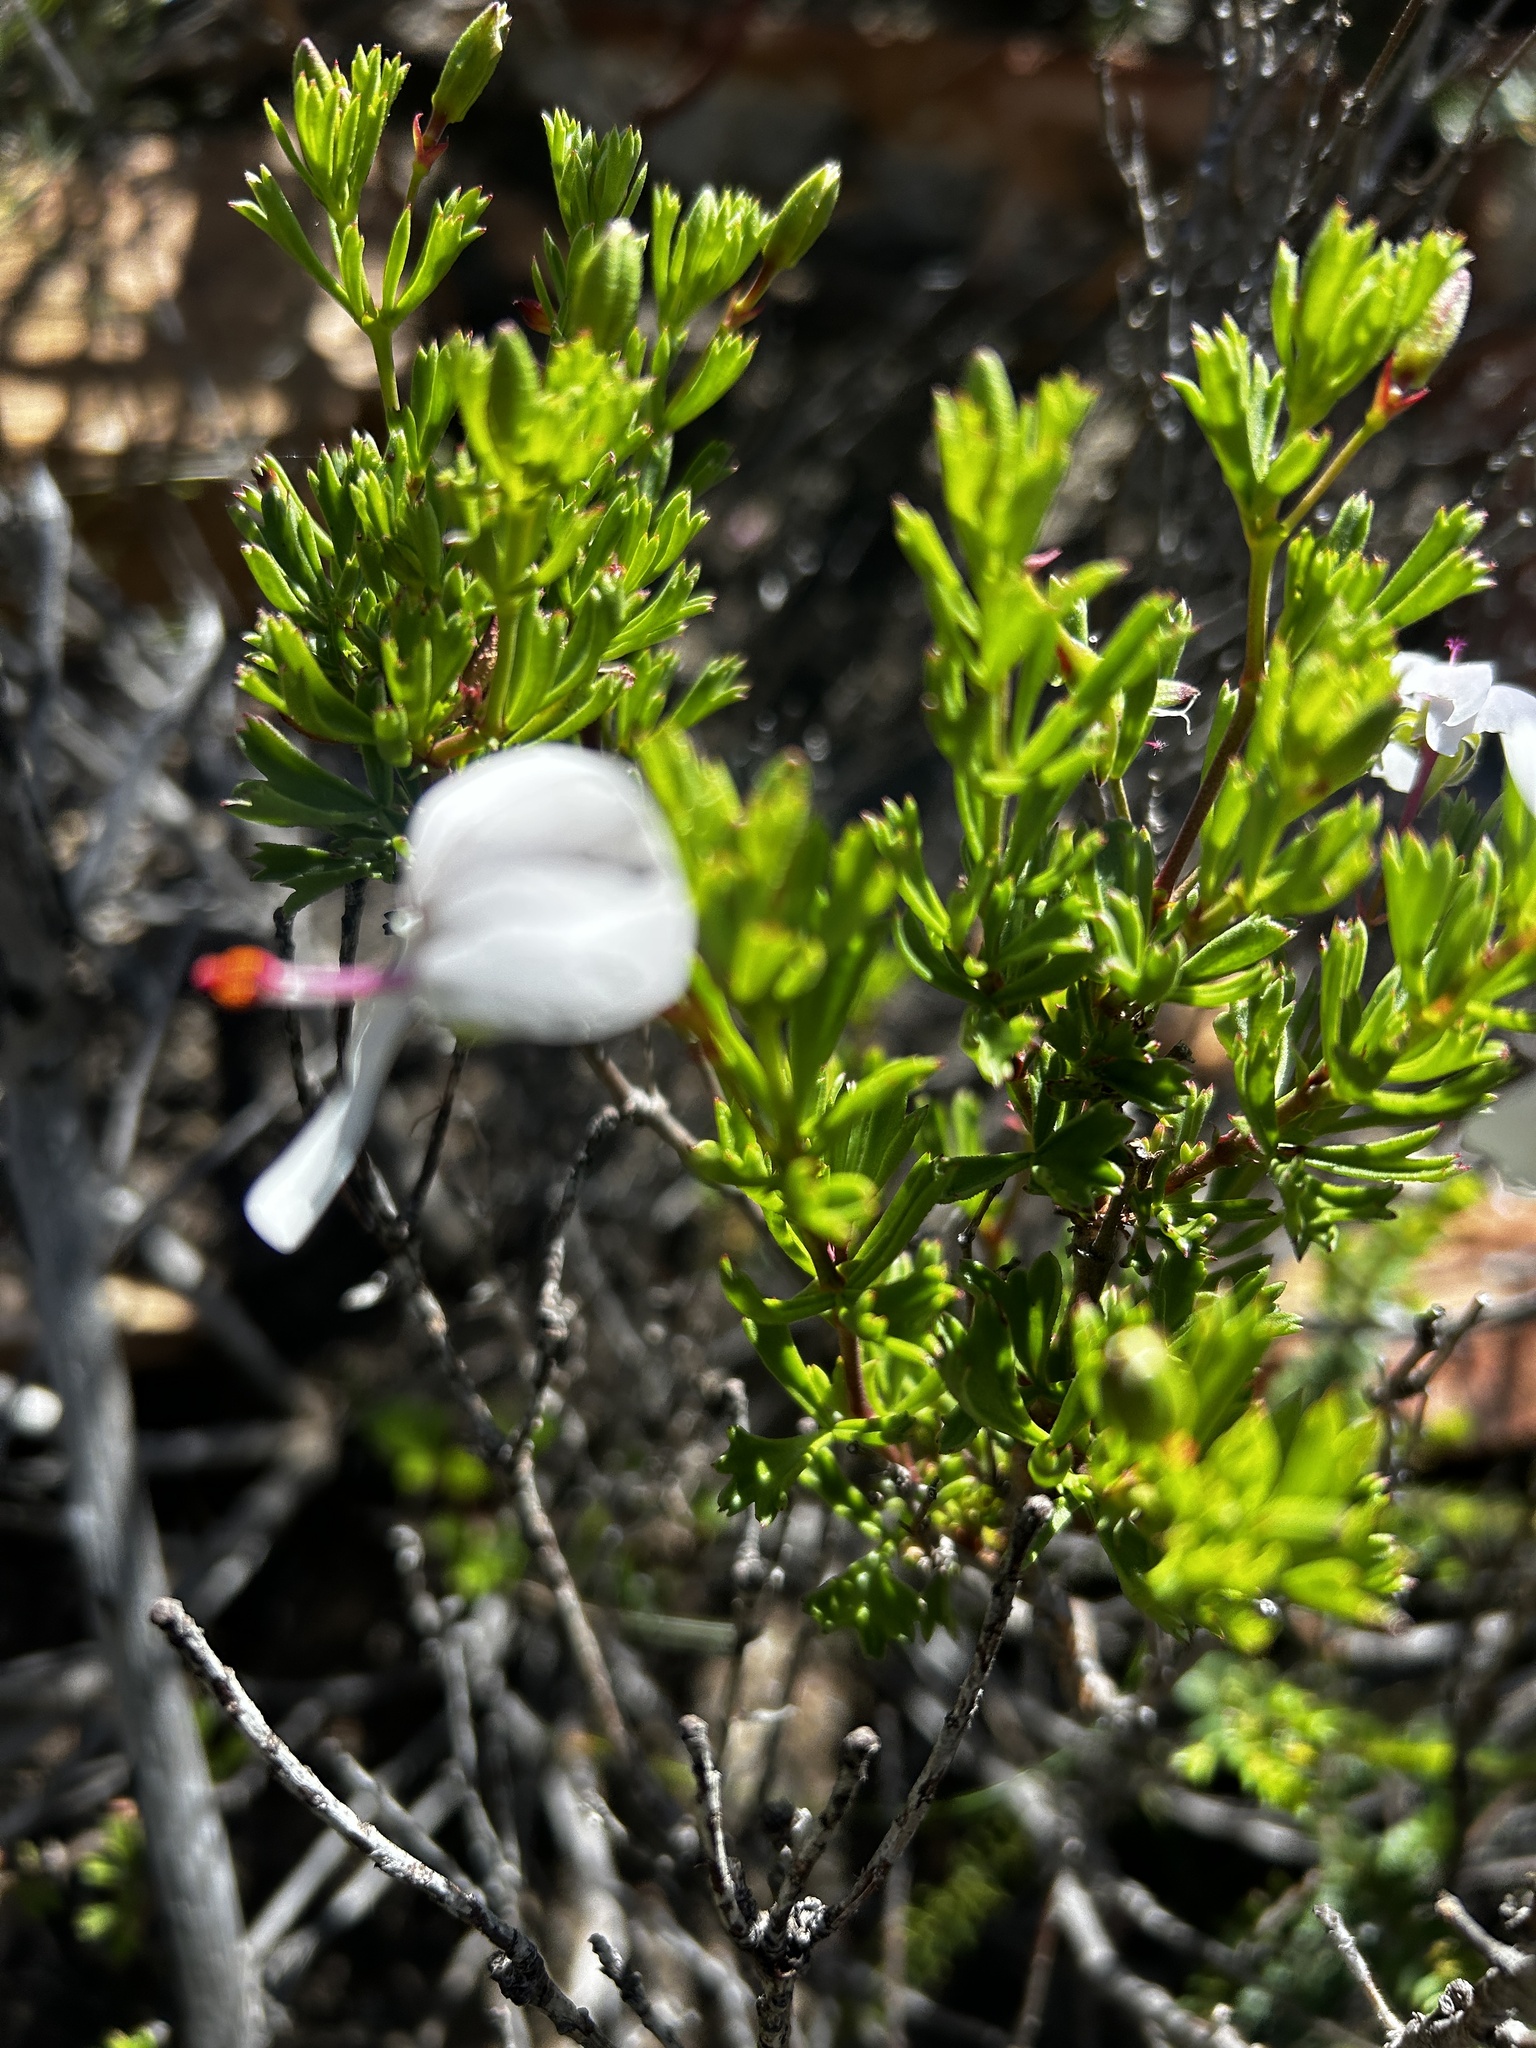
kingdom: Plantae
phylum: Tracheophyta
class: Magnoliopsida
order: Geraniales
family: Geraniaceae
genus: Pelargonium
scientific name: Pelargonium ternatum
